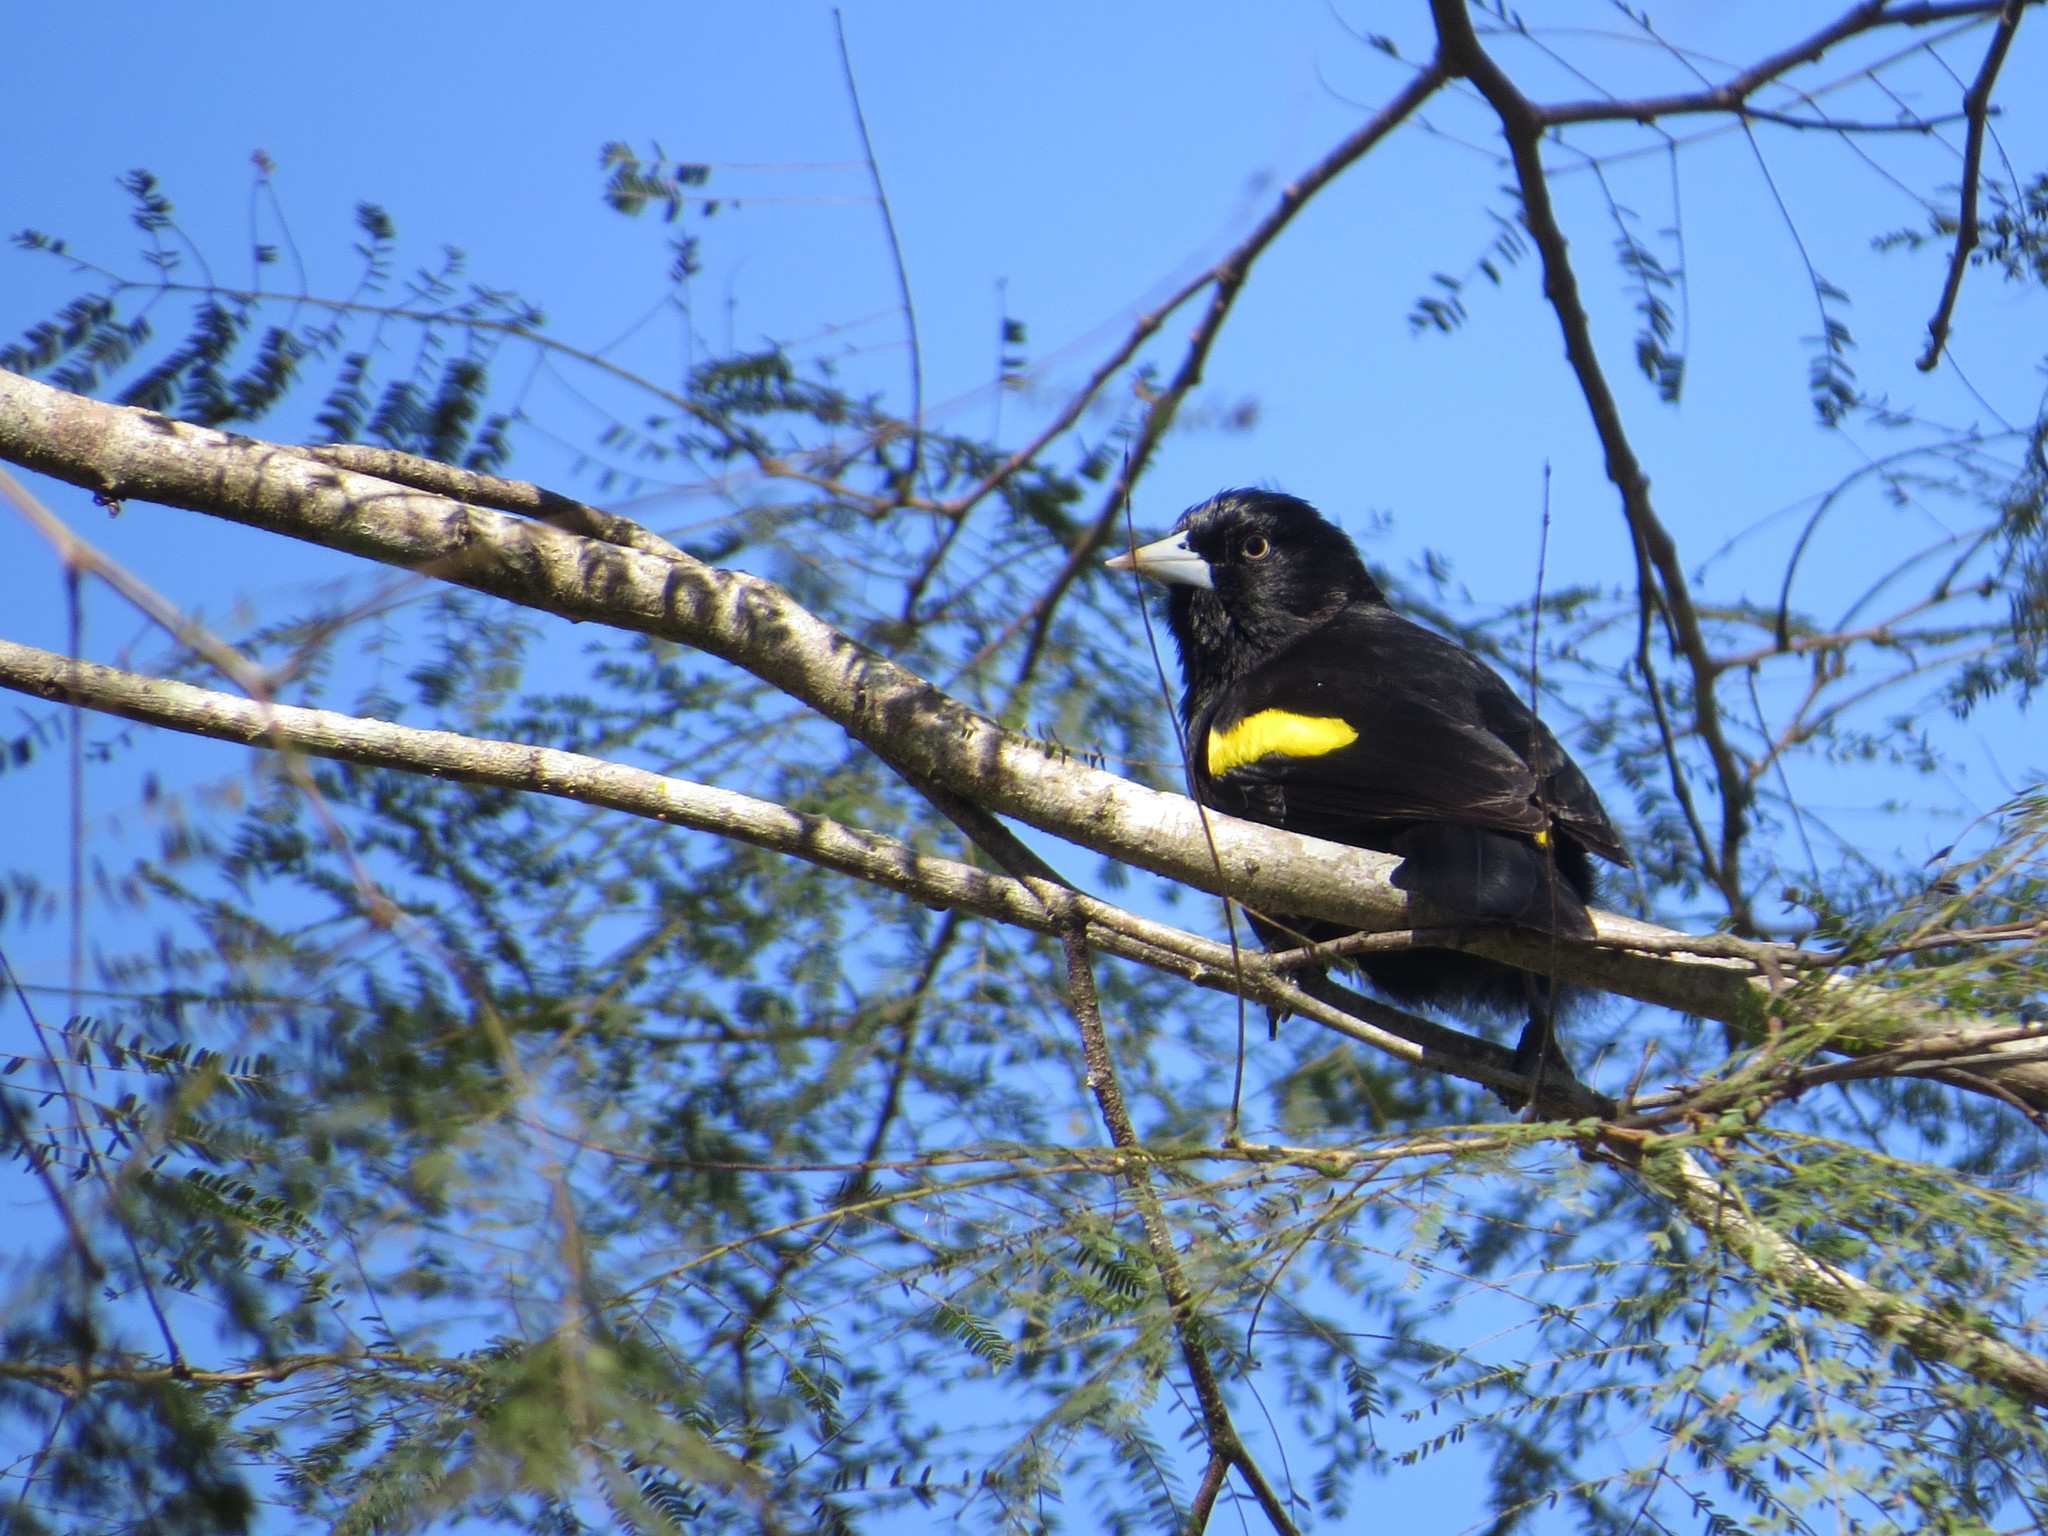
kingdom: Animalia
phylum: Chordata
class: Aves
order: Passeriformes
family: Icteridae
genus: Cacicus
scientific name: Cacicus chrysopterus
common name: Golden-winged cacique
